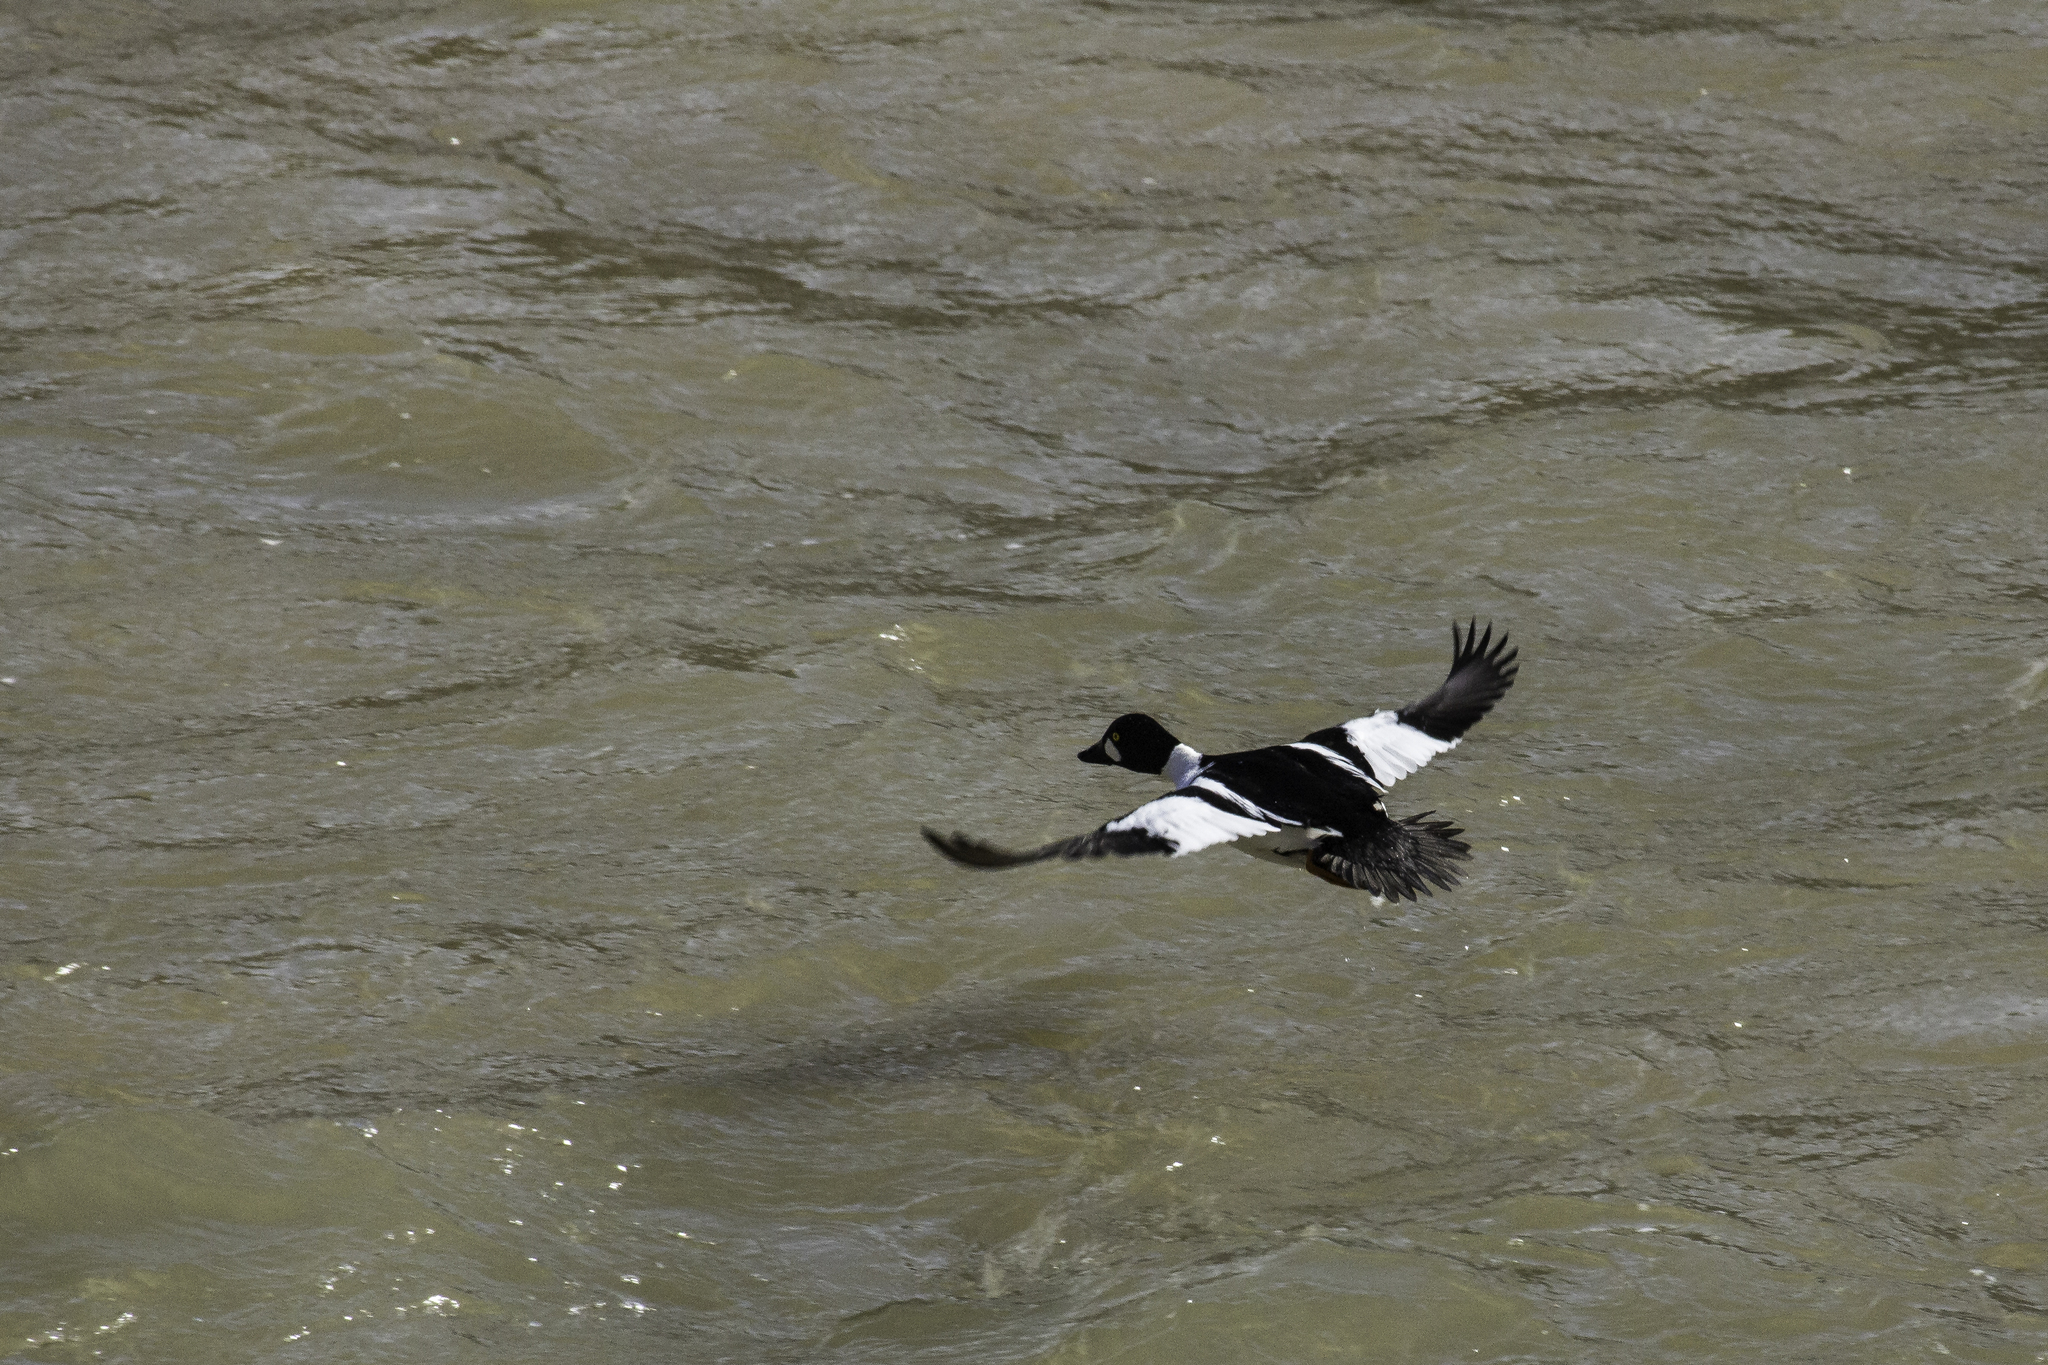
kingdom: Animalia
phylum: Chordata
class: Aves
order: Anseriformes
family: Anatidae
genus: Bucephala
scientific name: Bucephala clangula
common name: Common goldeneye
